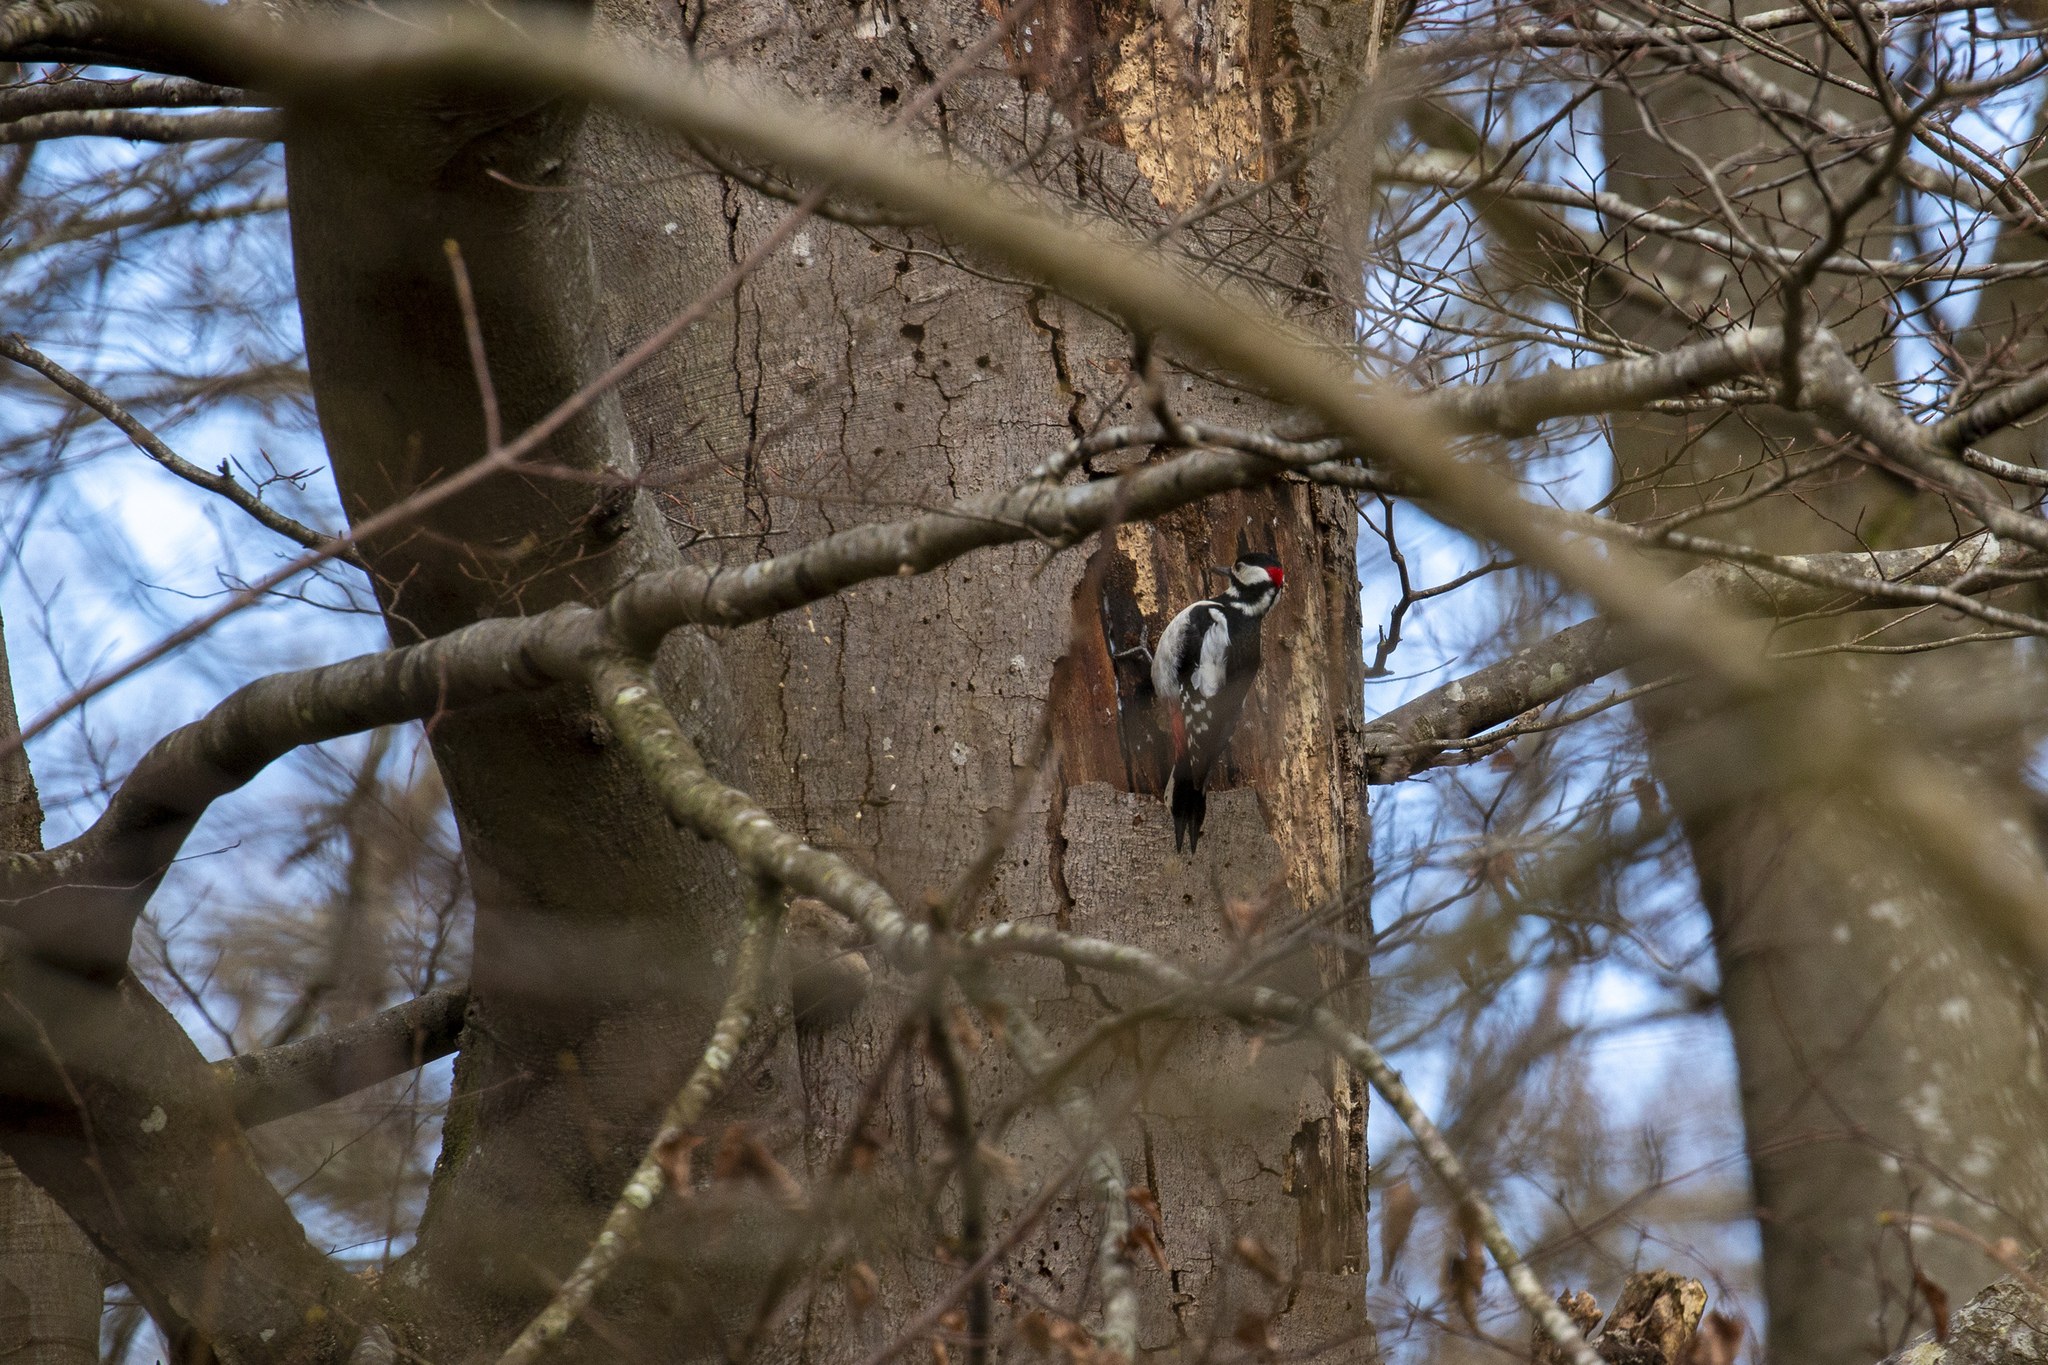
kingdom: Animalia
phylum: Chordata
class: Aves
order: Piciformes
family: Picidae
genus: Dendrocopos
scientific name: Dendrocopos major
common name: Great spotted woodpecker
